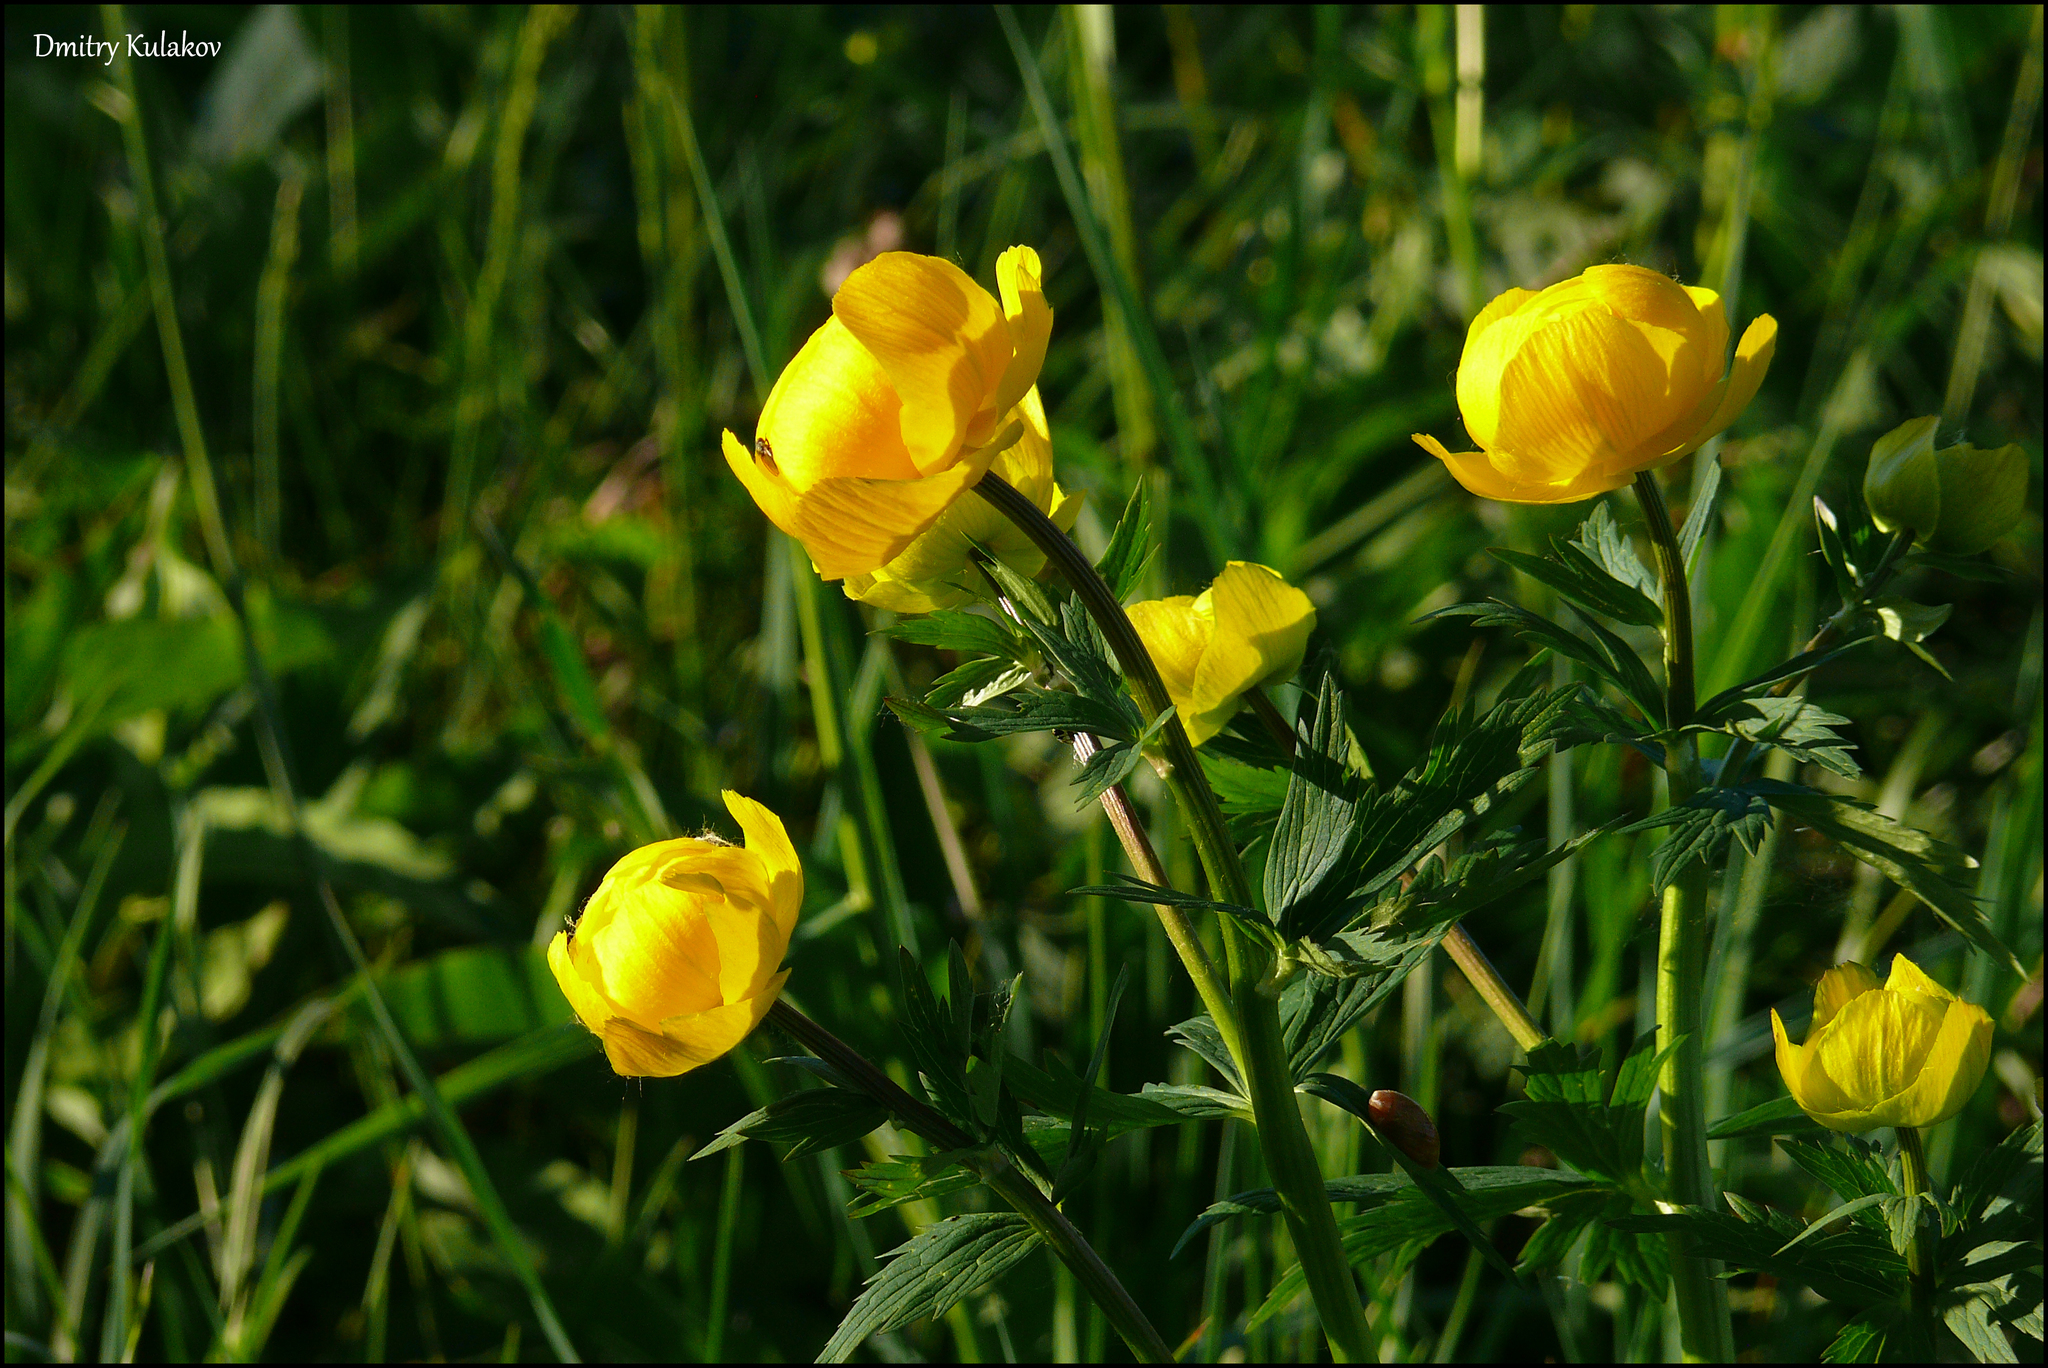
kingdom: Plantae
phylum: Tracheophyta
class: Magnoliopsida
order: Ranunculales
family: Ranunculaceae
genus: Trollius
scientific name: Trollius europaeus
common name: European globeflower
